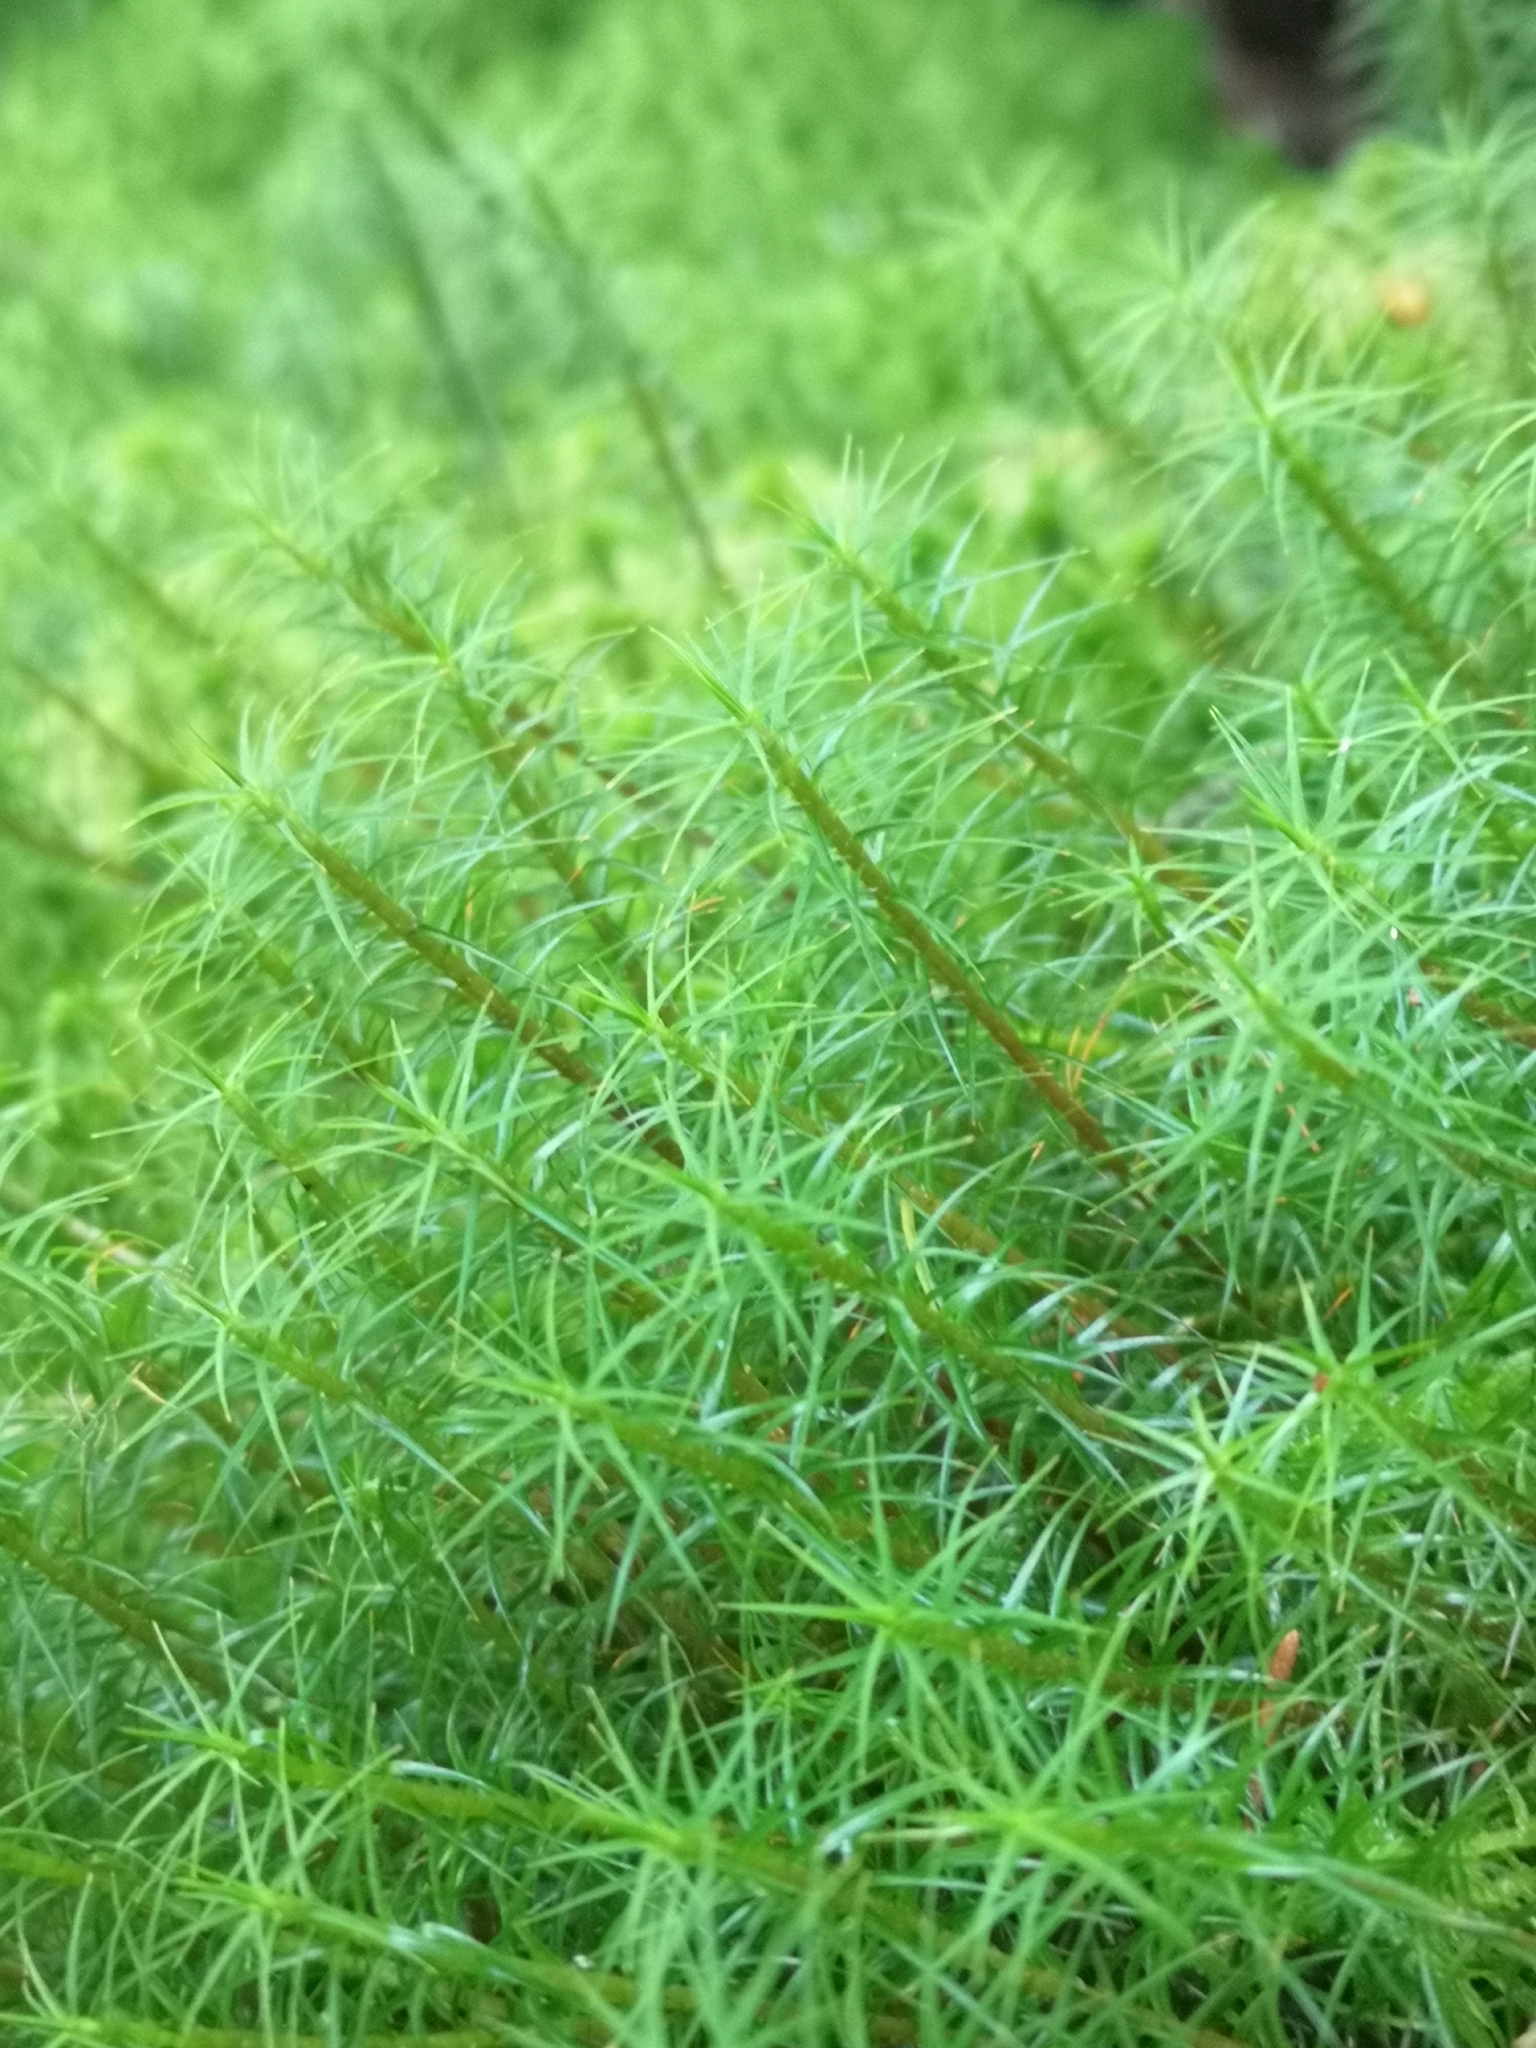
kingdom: Plantae
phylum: Bryophyta
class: Polytrichopsida
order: Polytrichales
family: Polytrichaceae
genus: Polytrichum
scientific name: Polytrichum commune
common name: Common haircap
